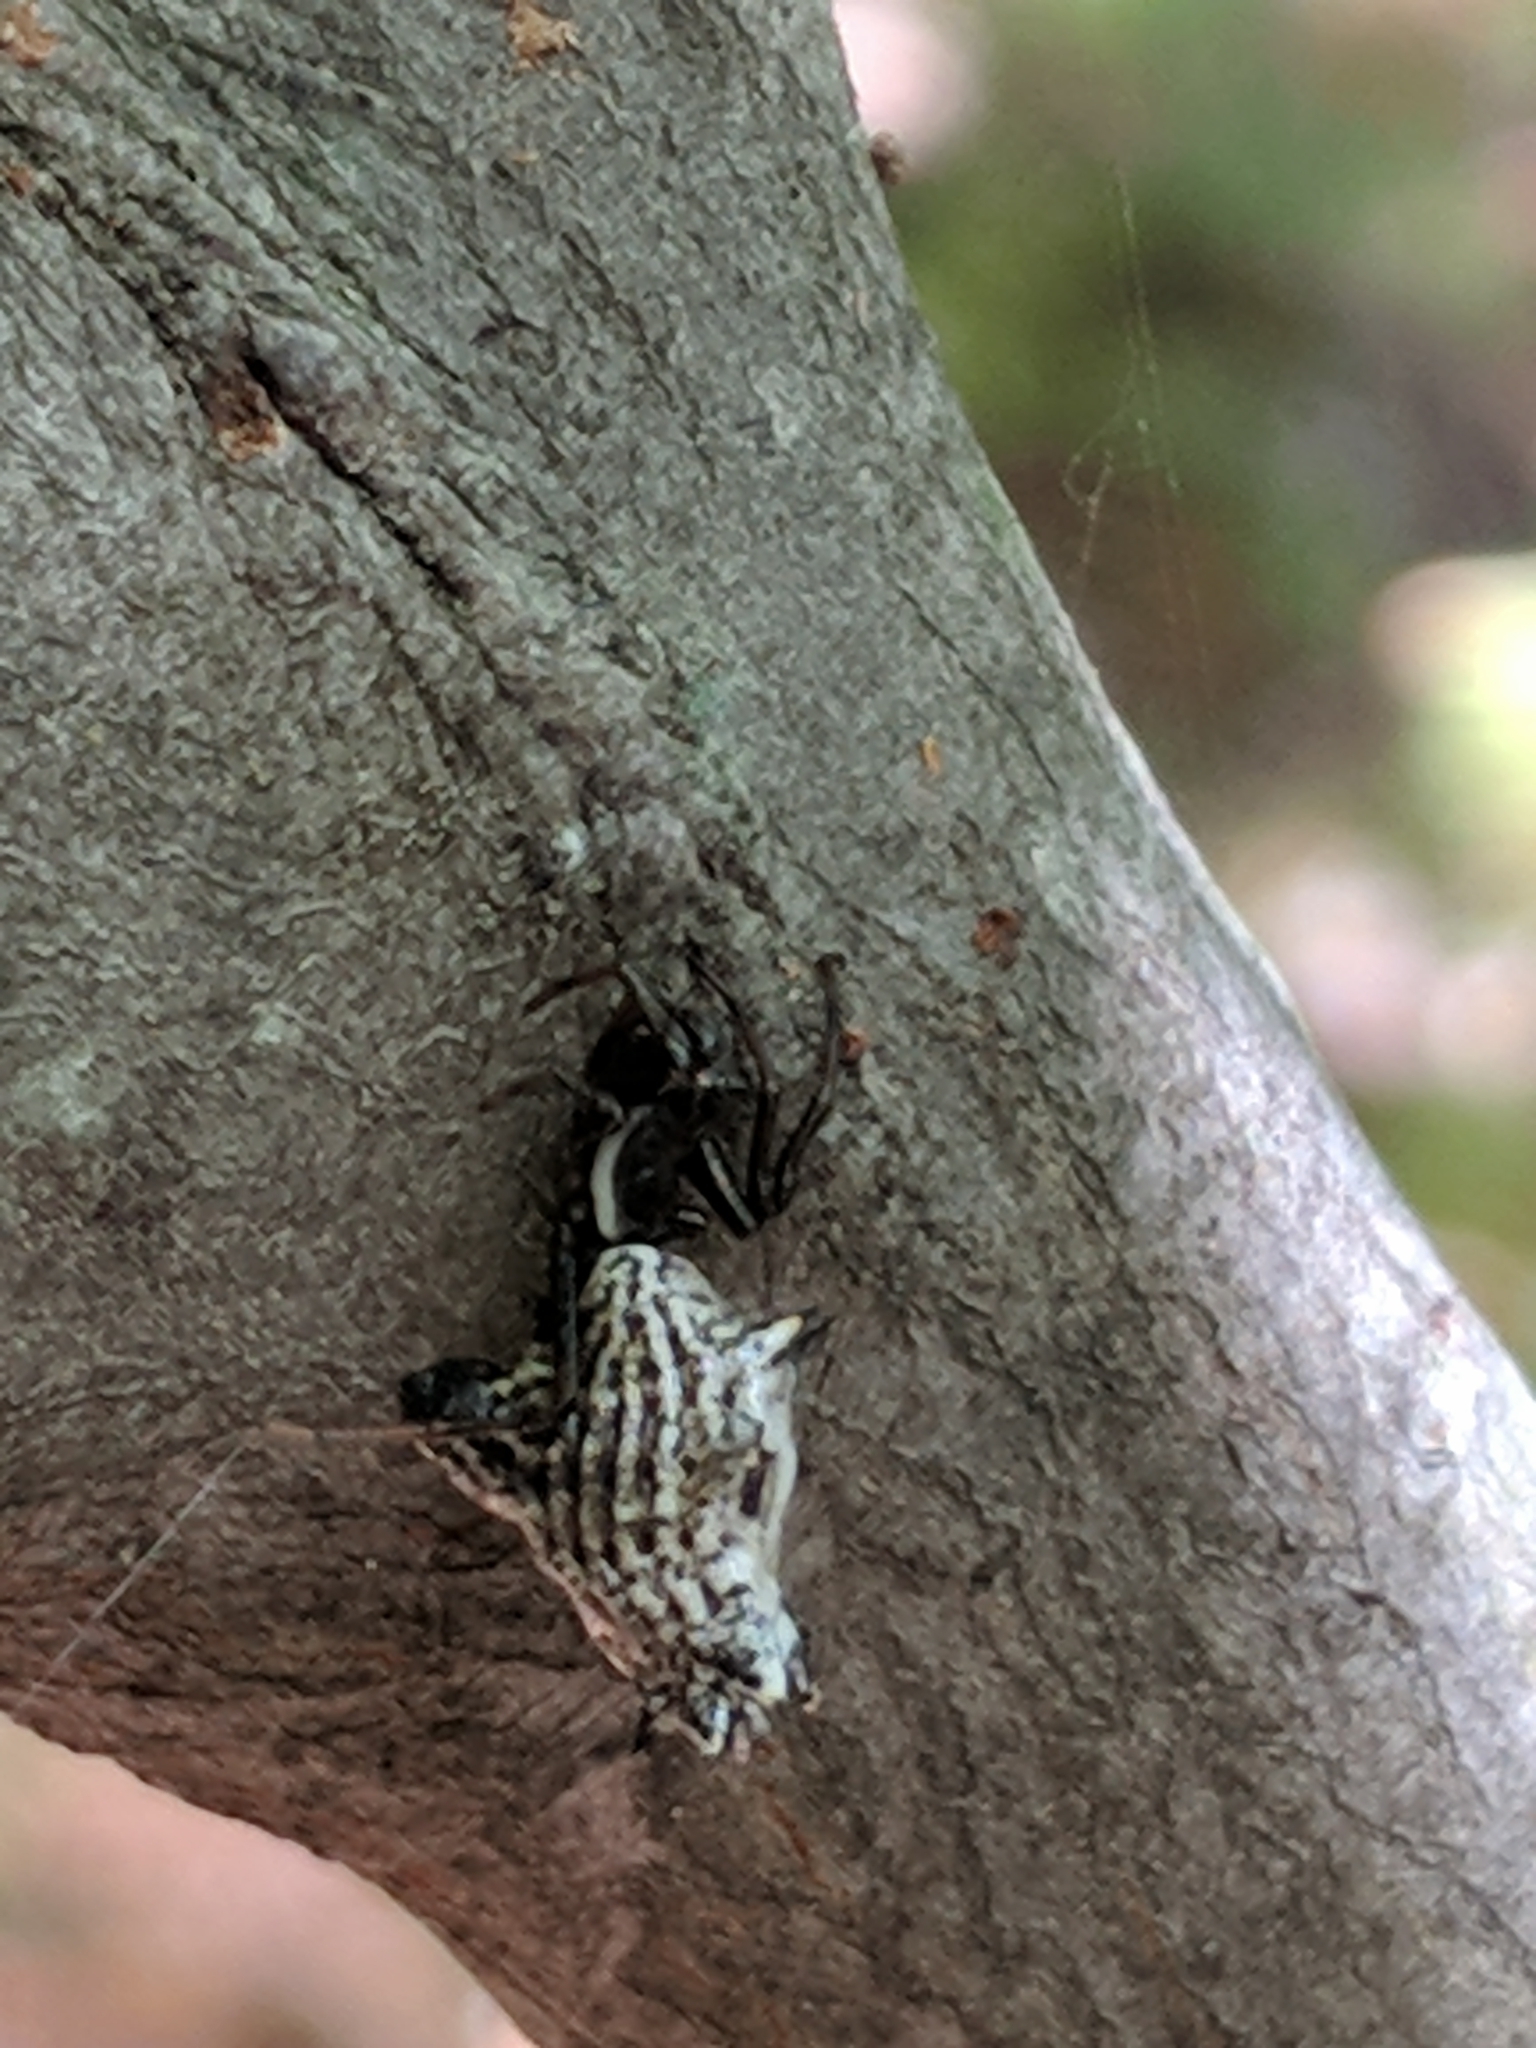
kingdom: Animalia
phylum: Arthropoda
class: Arachnida
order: Araneae
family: Araneidae
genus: Micrathena
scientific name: Micrathena gracilis
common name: Orb weavers
